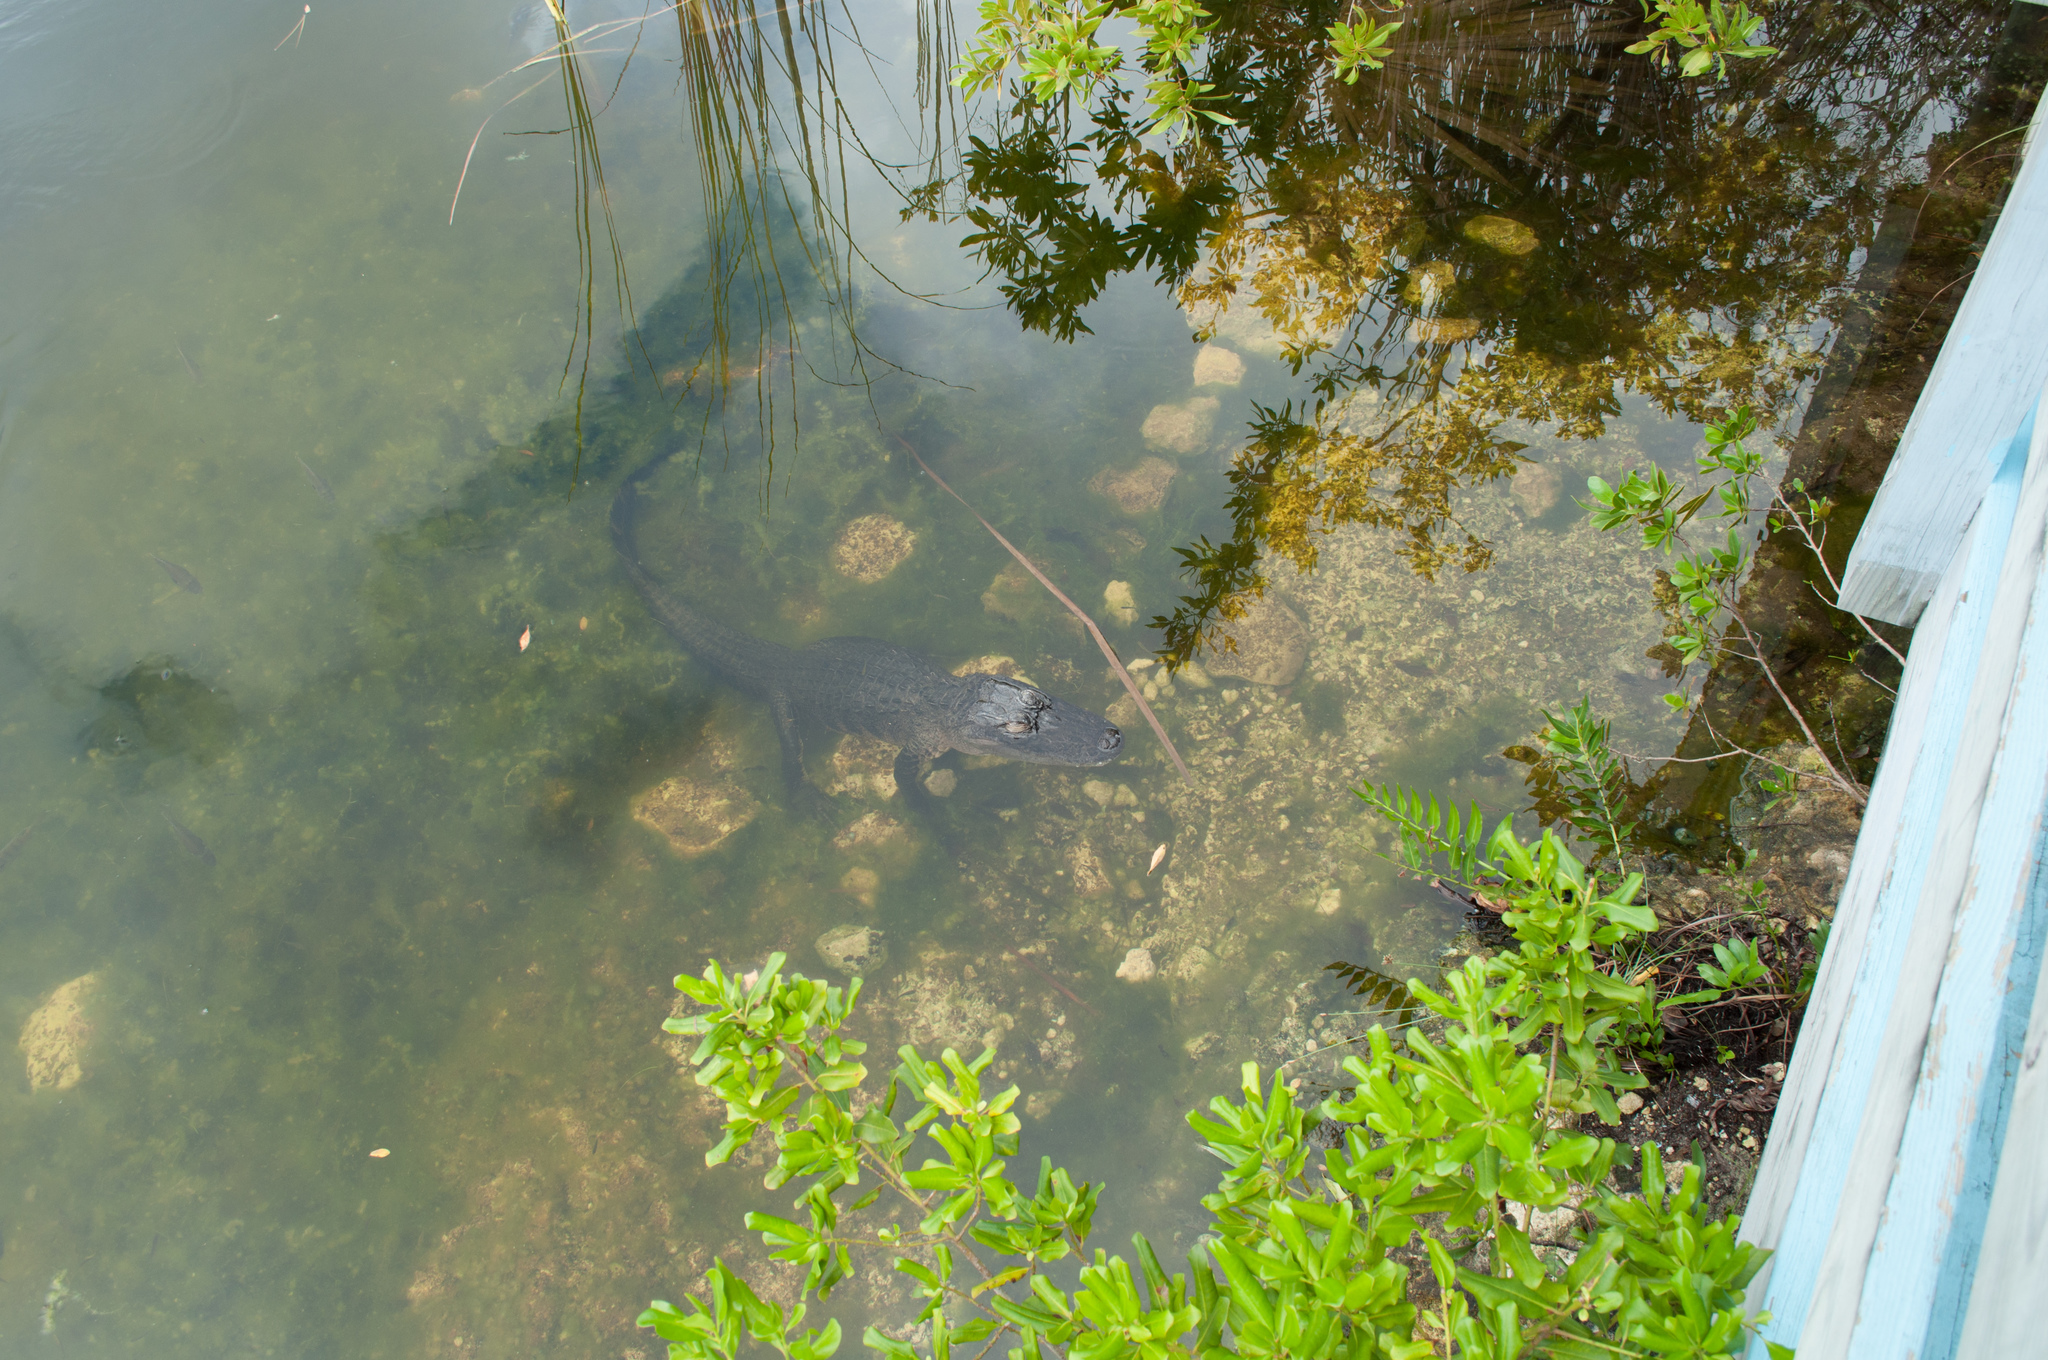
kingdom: Animalia
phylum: Chordata
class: Crocodylia
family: Alligatoridae
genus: Alligator
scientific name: Alligator mississippiensis
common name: American alligator
